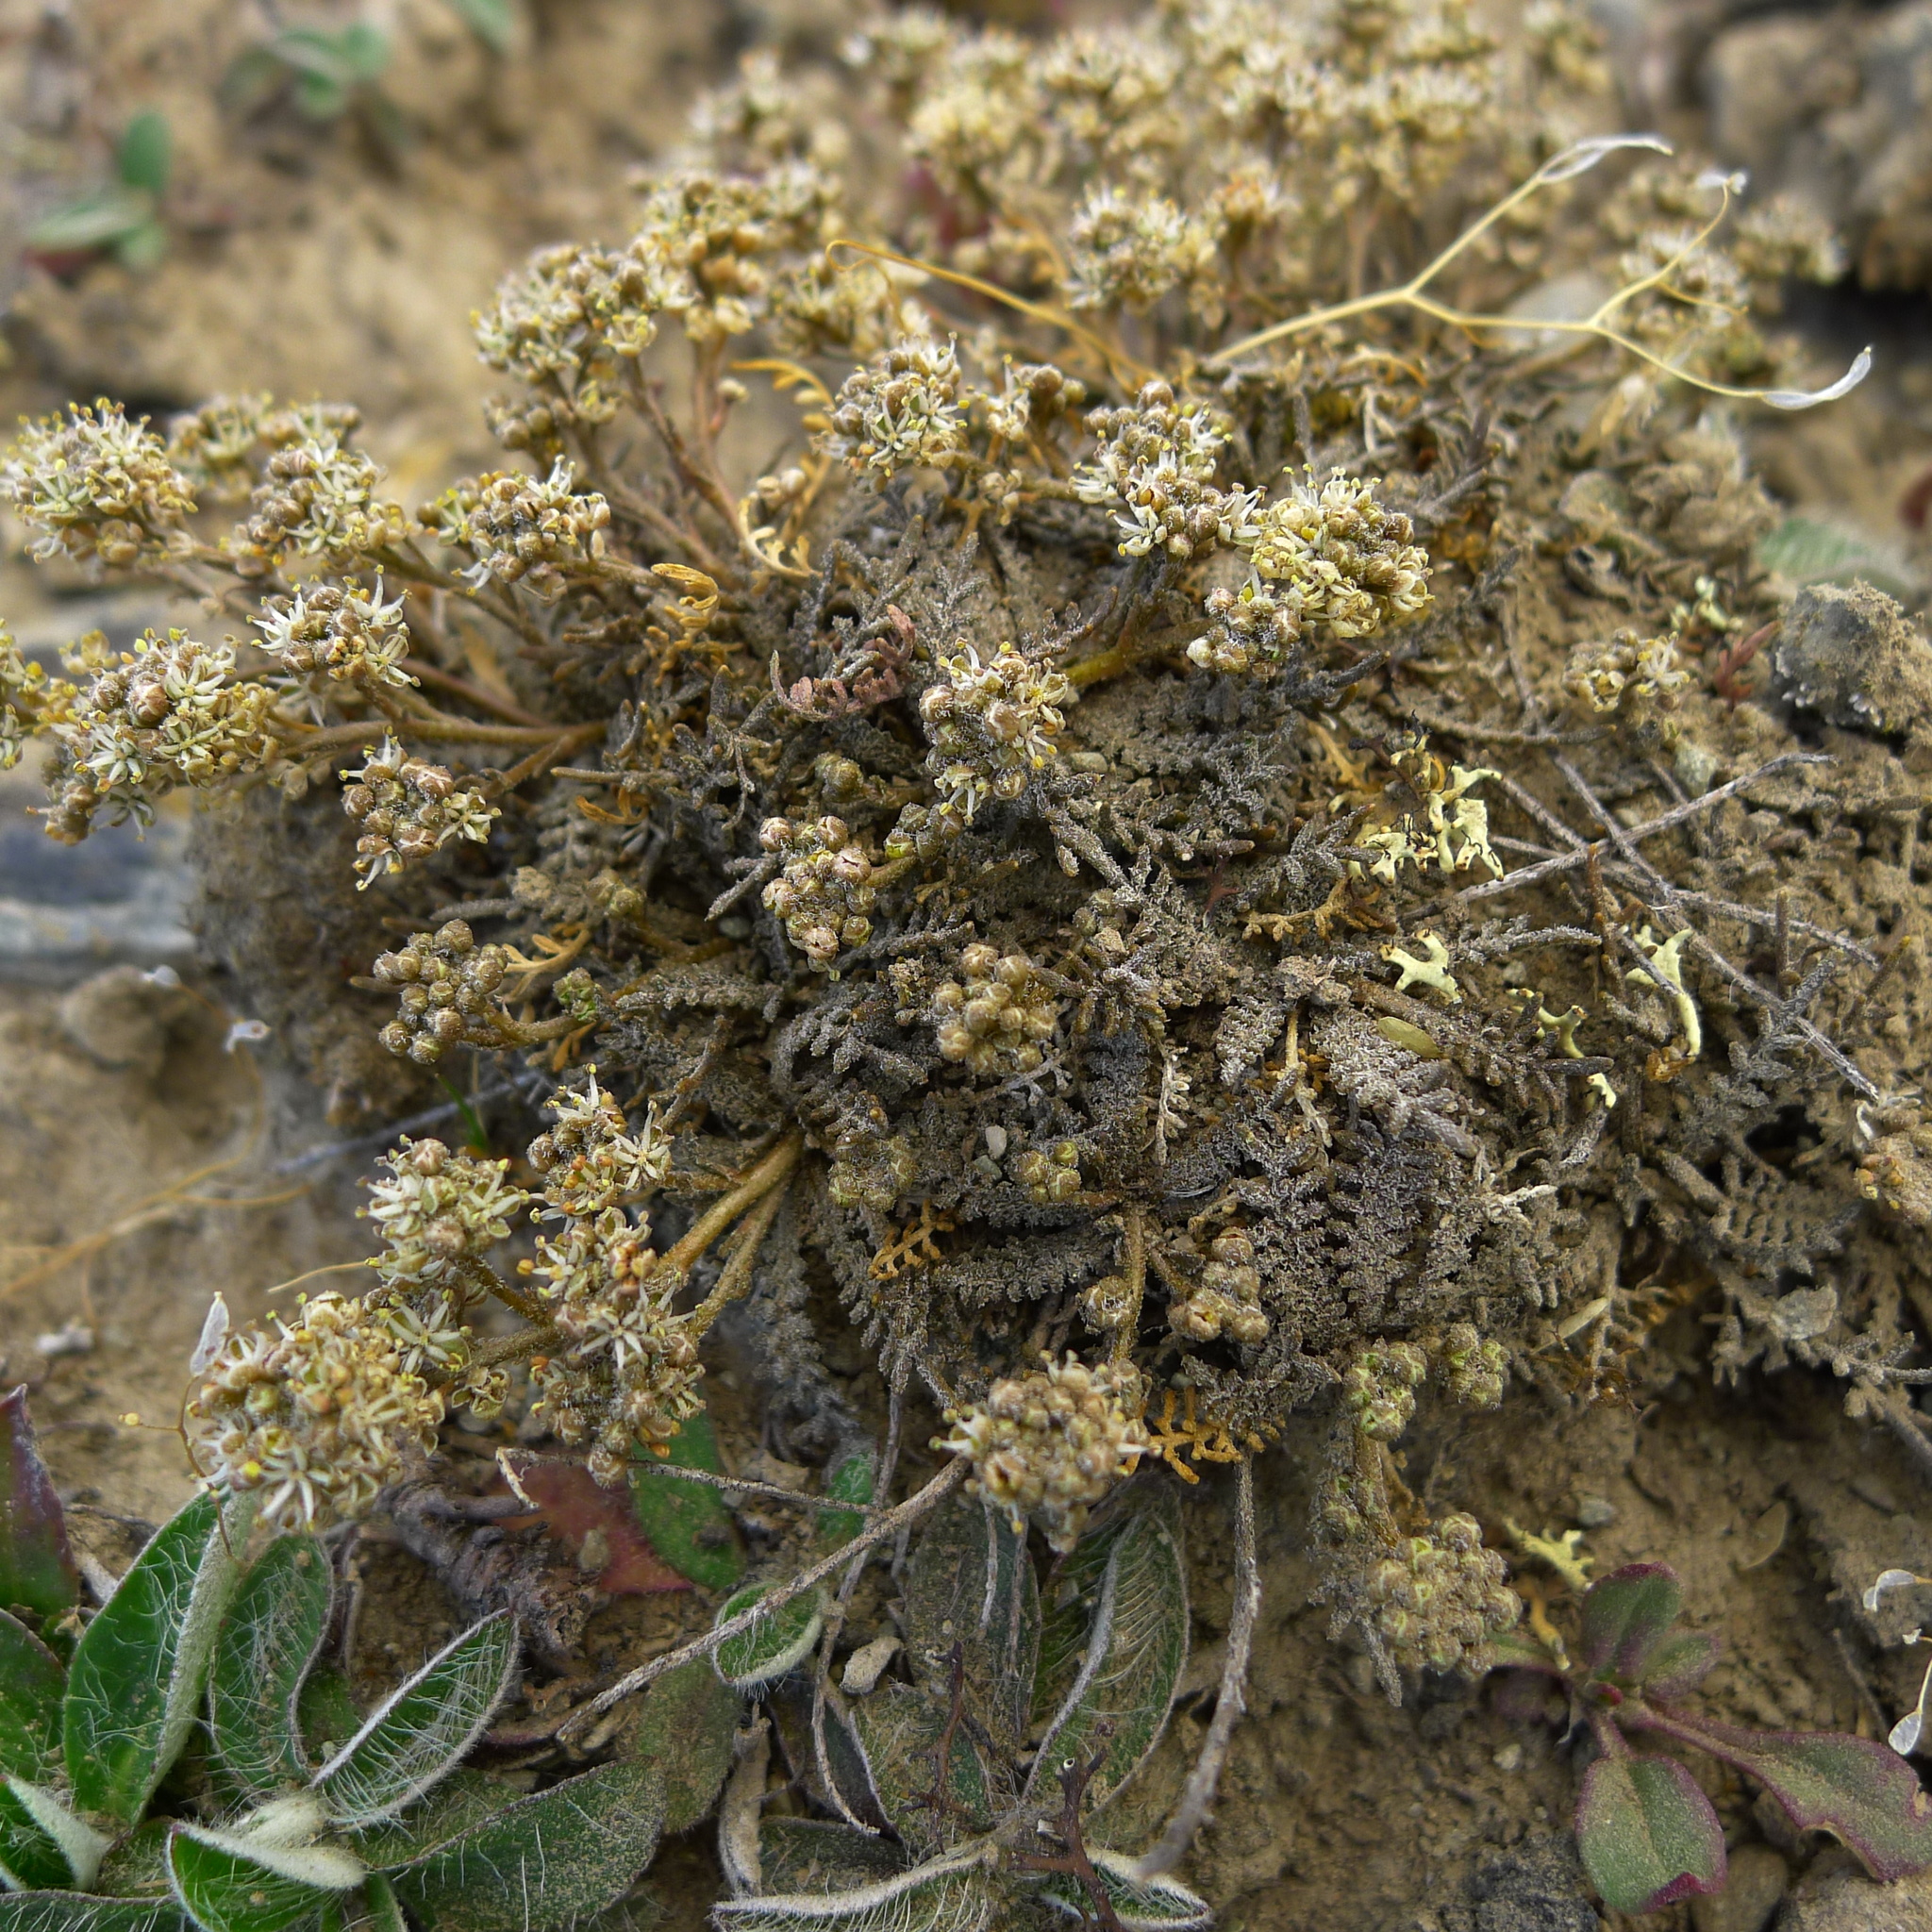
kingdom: Plantae
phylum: Tracheophyta
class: Magnoliopsida
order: Brassicales
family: Brassicaceae
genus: Lepidium
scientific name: Lepidium sisymbrioides
